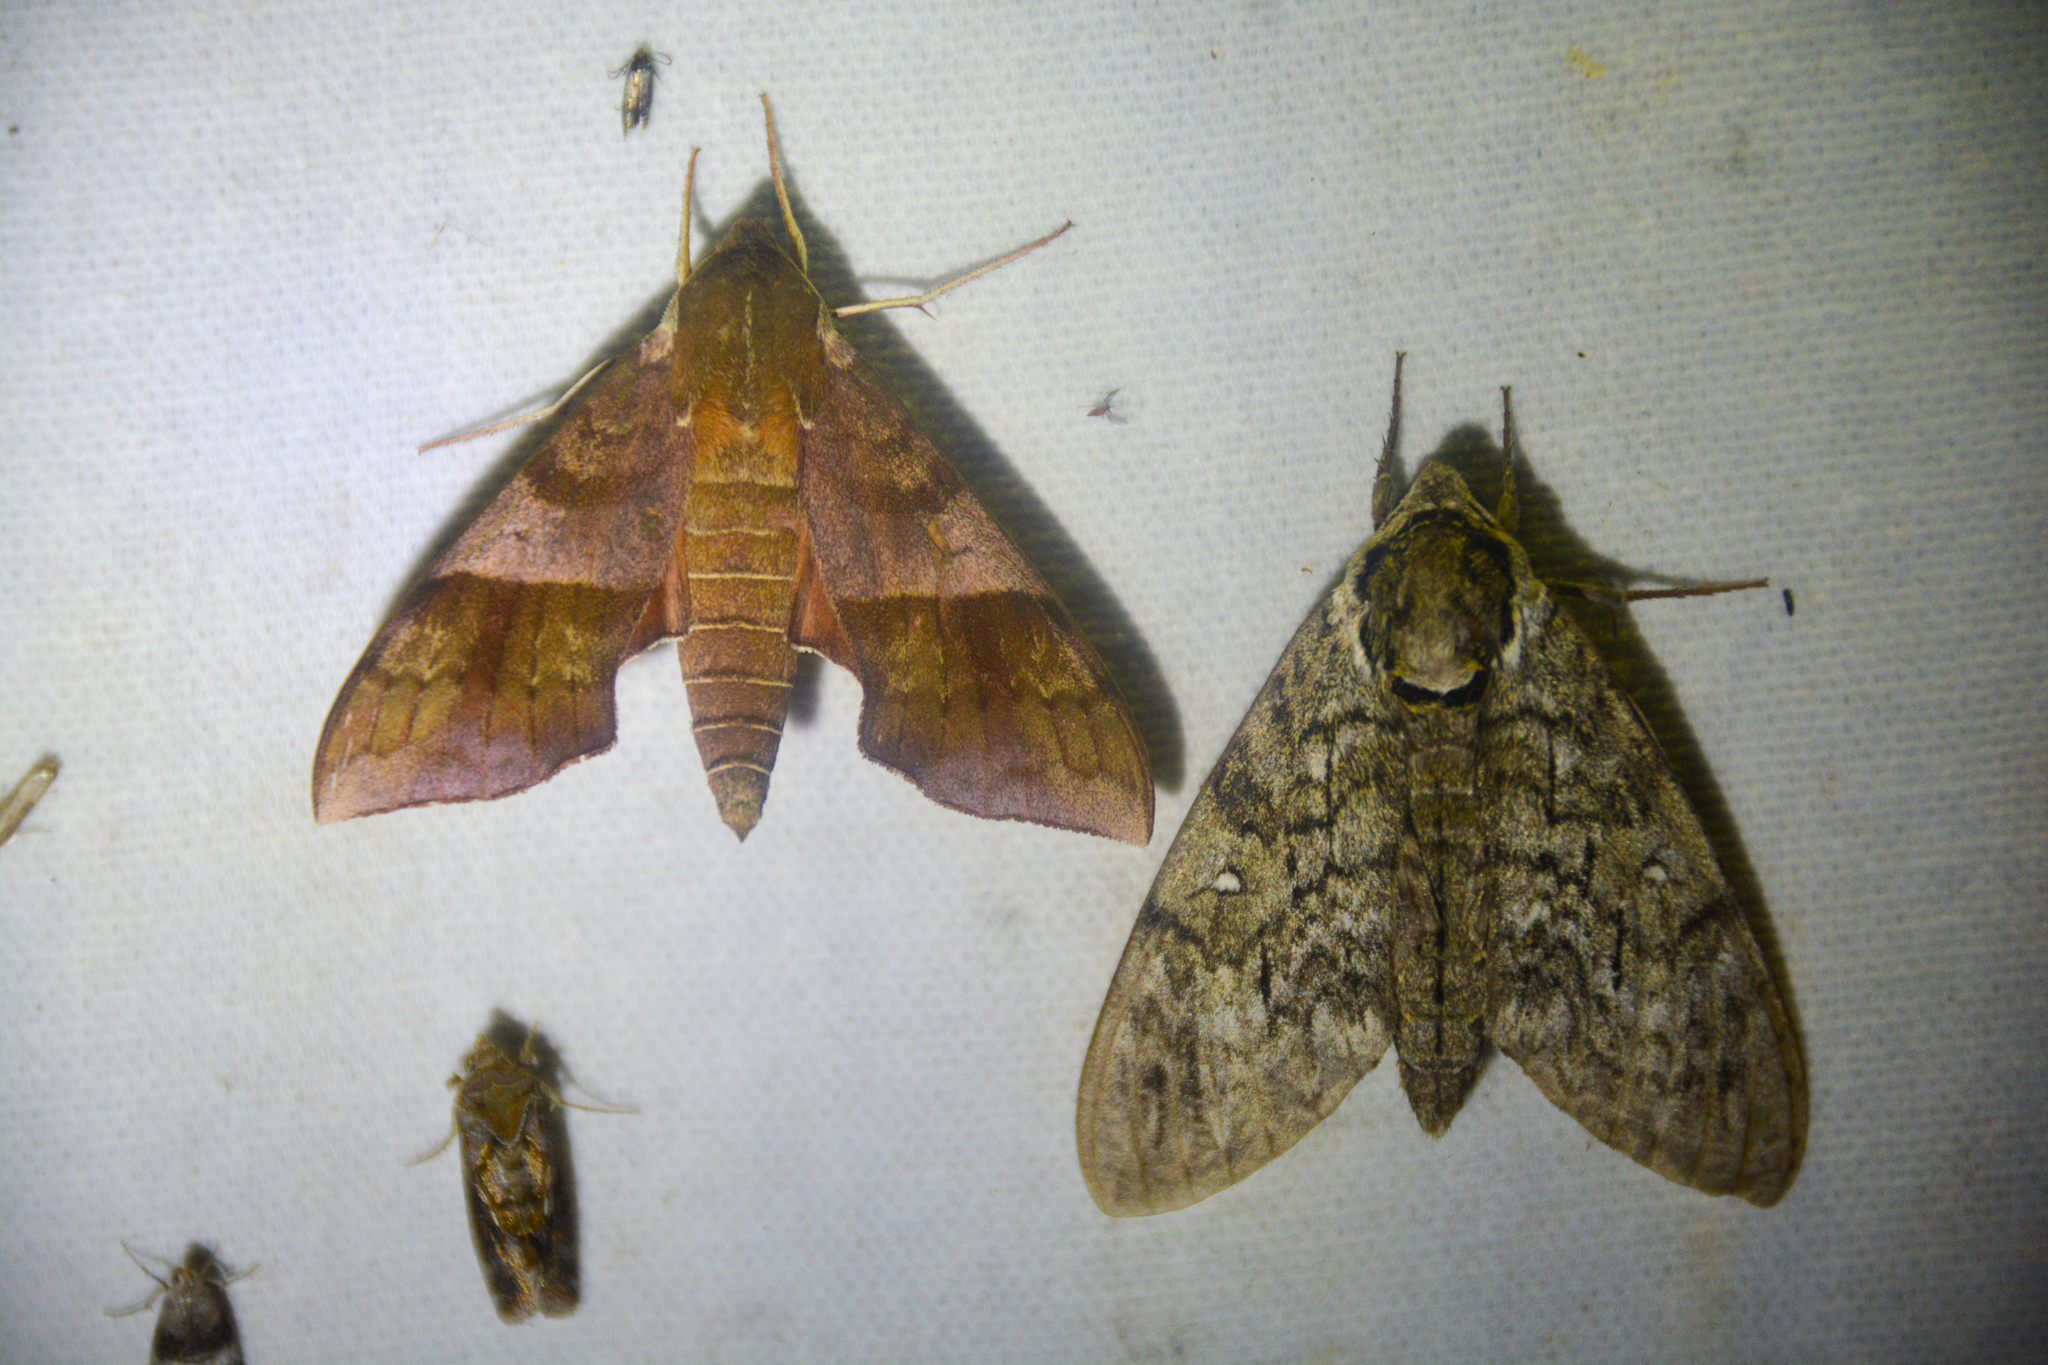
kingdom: Animalia
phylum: Arthropoda
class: Insecta
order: Lepidoptera
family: Sphingidae
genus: Darapsa
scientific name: Darapsa choerilus
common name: Azalea sphinx
